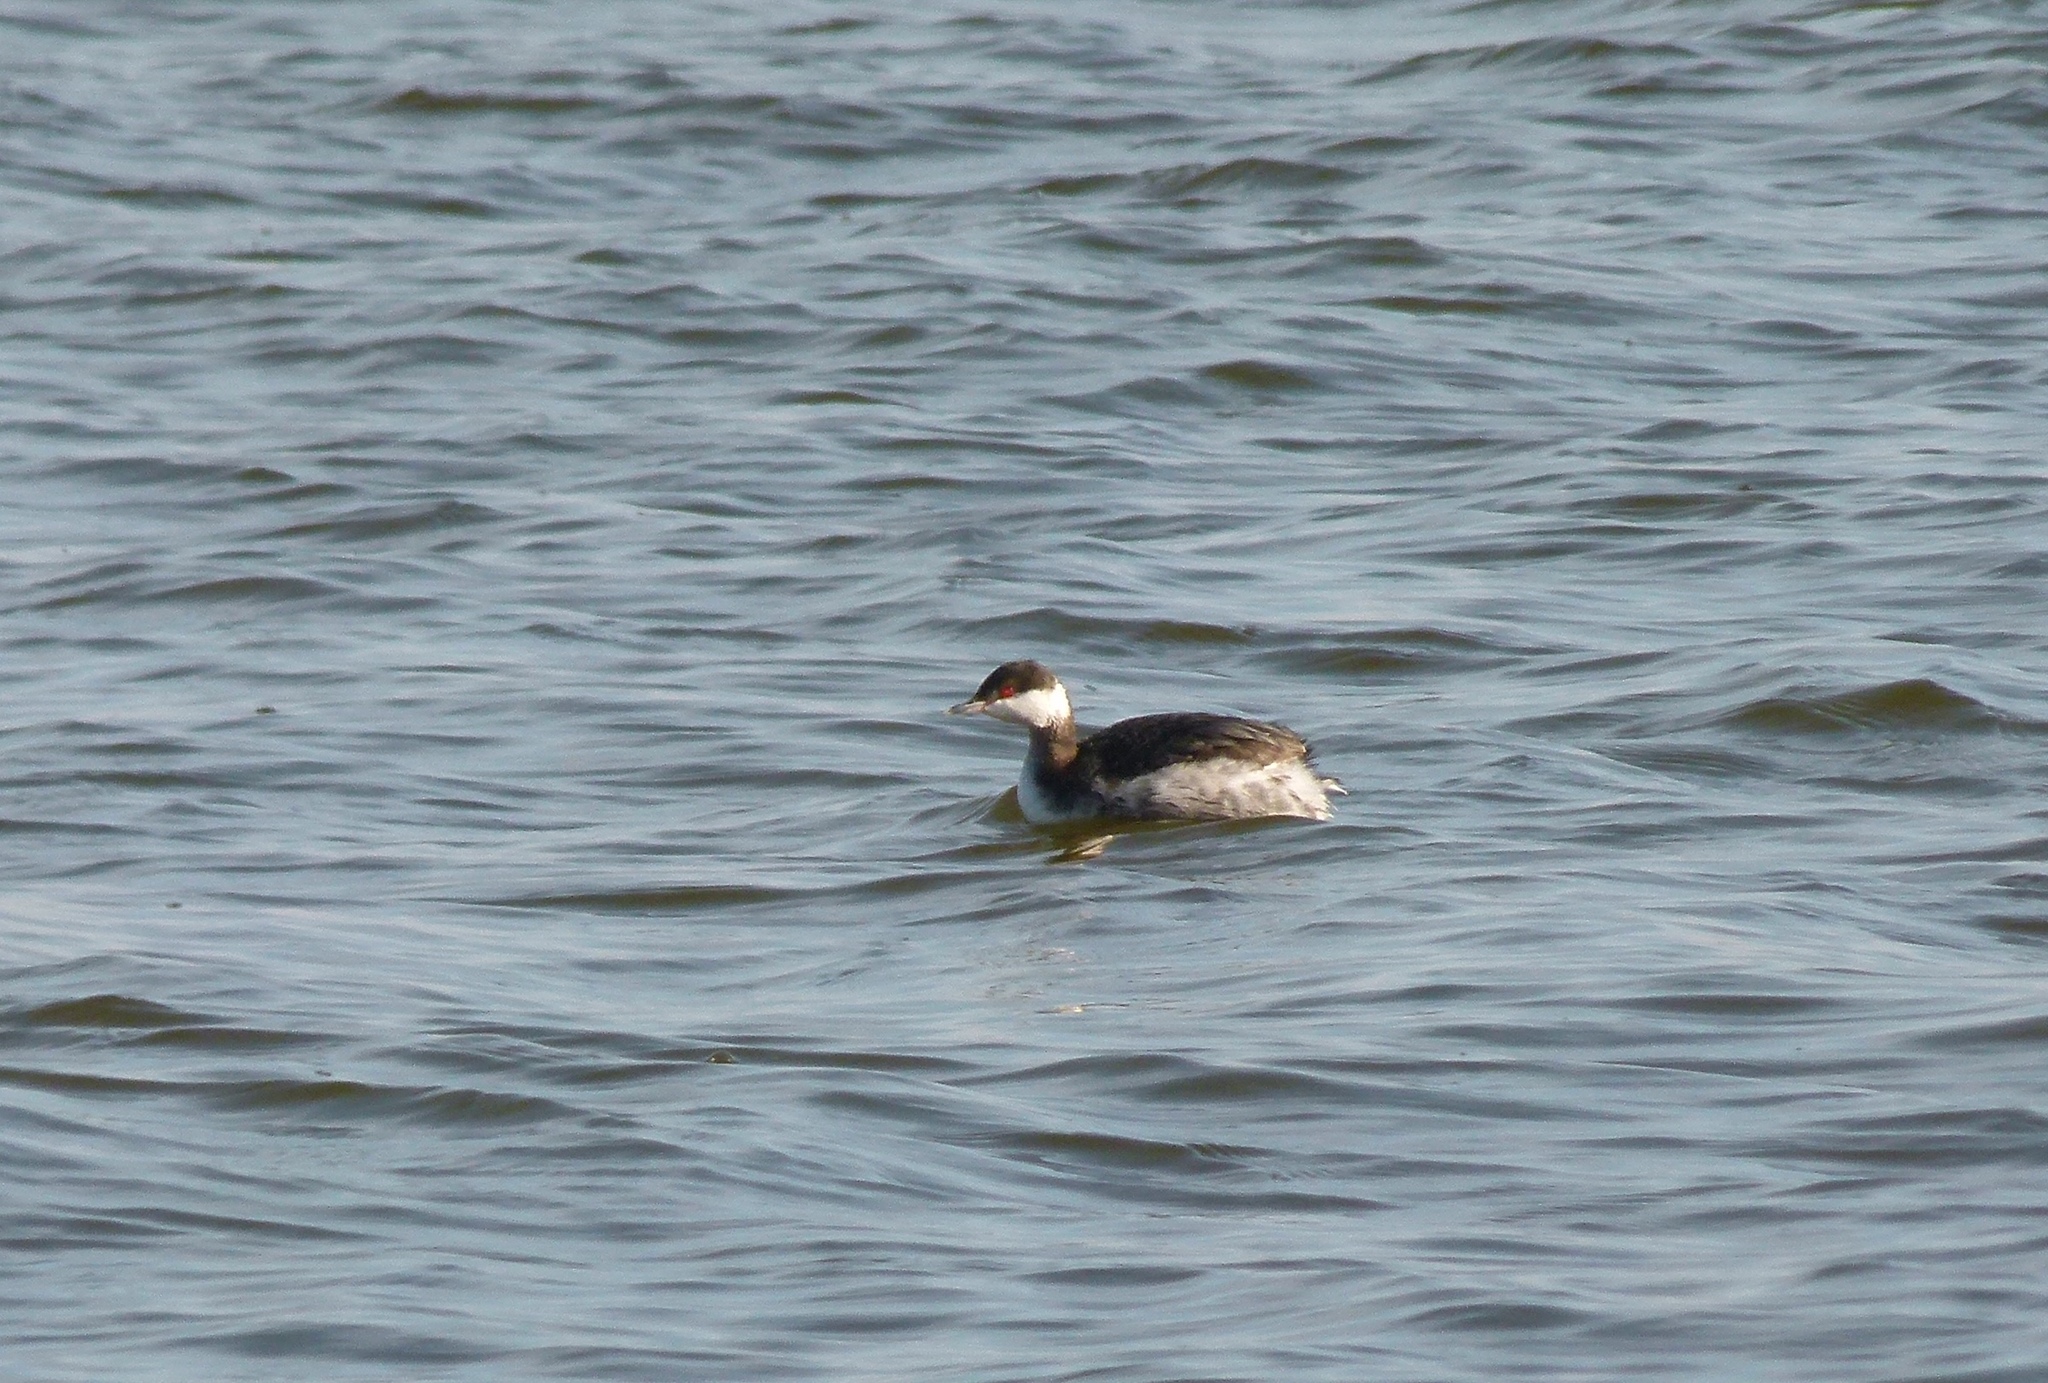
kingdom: Animalia
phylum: Chordata
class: Aves
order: Podicipediformes
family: Podicipedidae
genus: Podiceps
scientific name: Podiceps auritus
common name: Horned grebe
